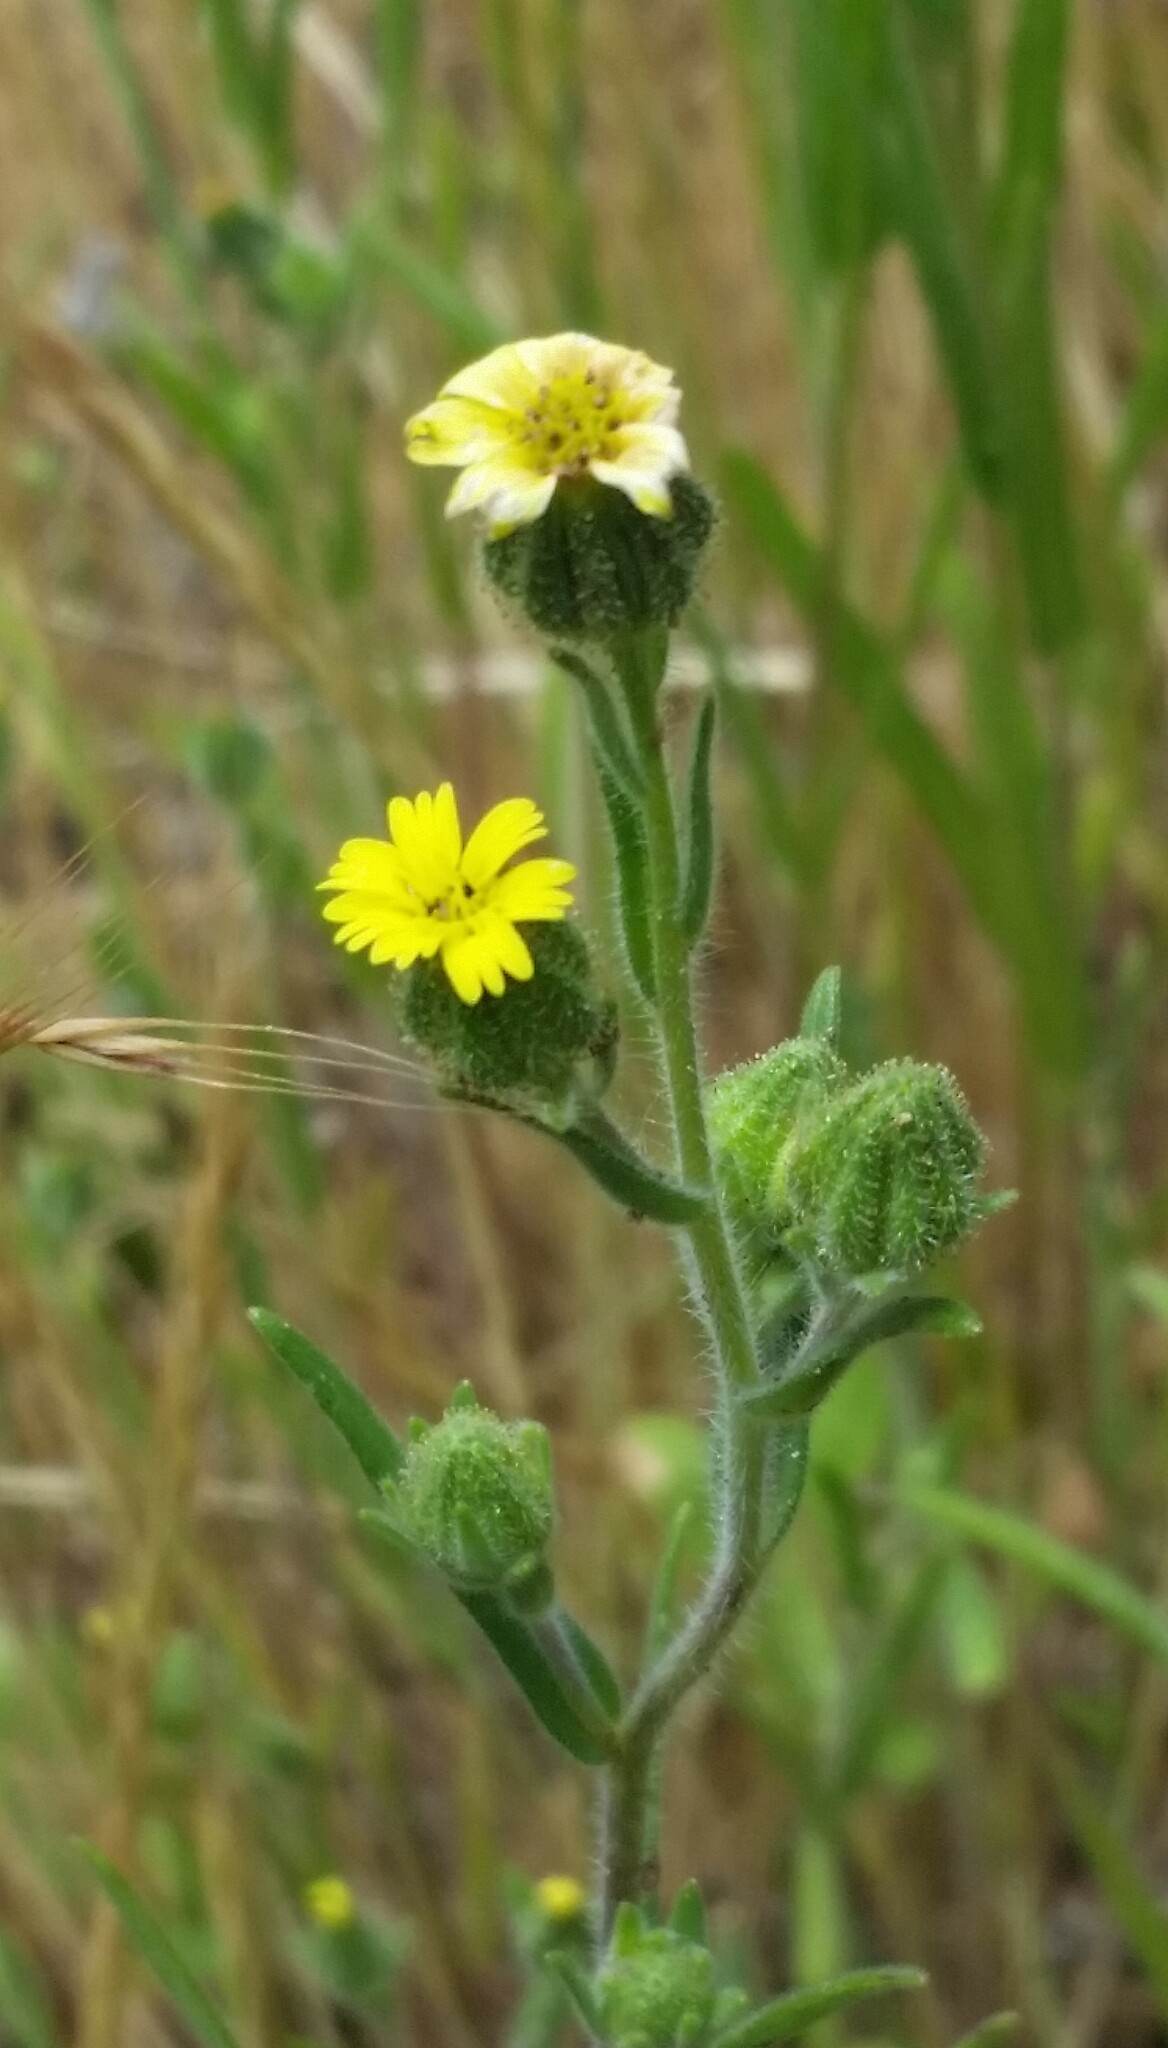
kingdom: Plantae
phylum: Tracheophyta
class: Magnoliopsida
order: Asterales
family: Asteraceae
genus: Madia
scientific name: Madia gracilis
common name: Grassy tarweed
